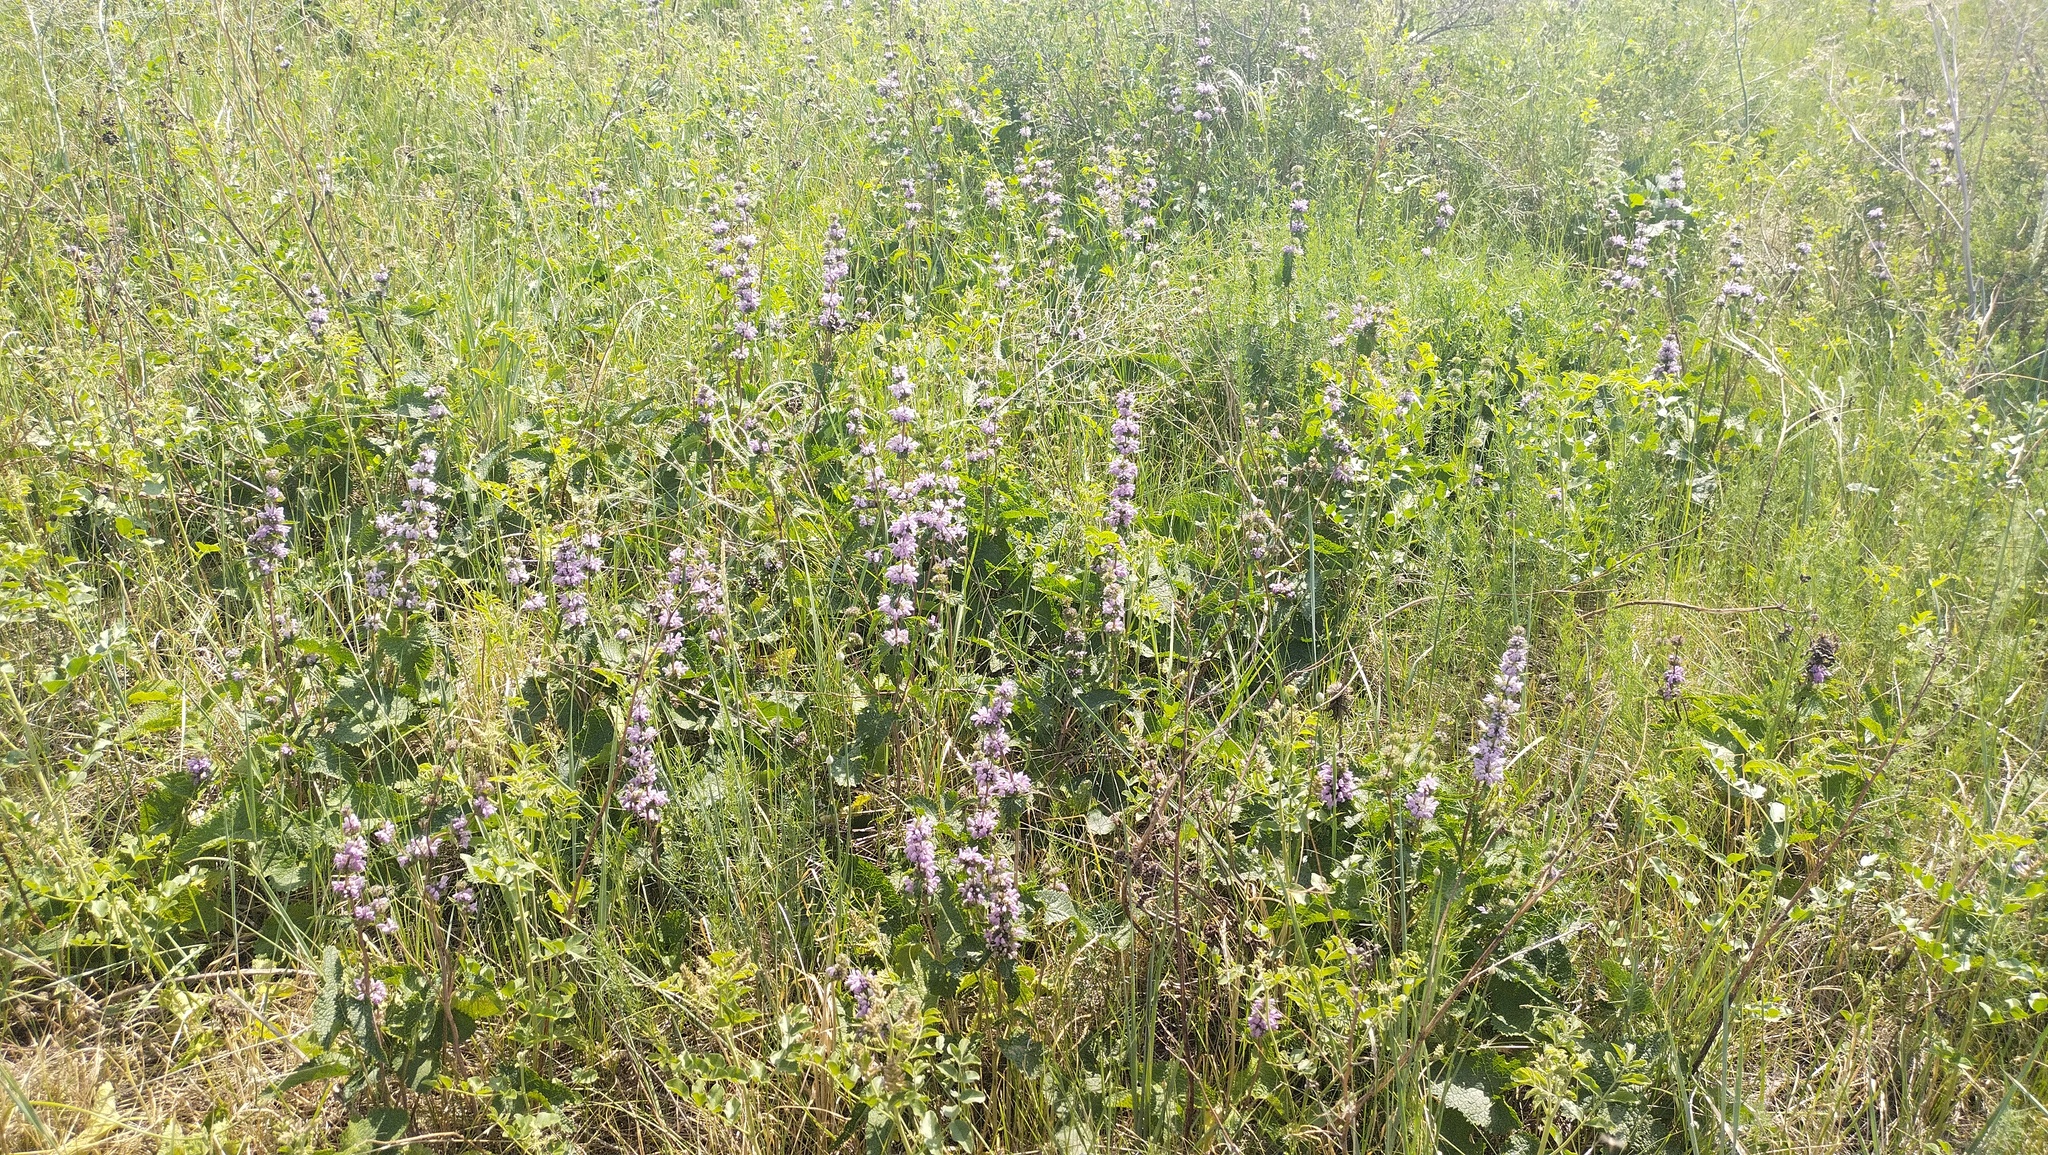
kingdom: Plantae
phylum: Tracheophyta
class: Magnoliopsida
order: Lamiales
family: Lamiaceae
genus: Phlomoides
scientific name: Phlomoides tuberosa
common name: Tuberous jerusalem sage
